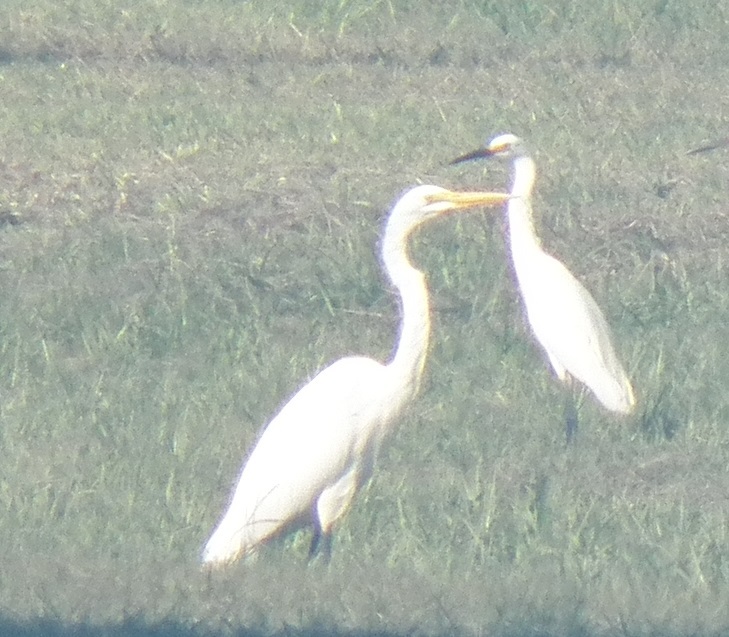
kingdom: Animalia
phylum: Chordata
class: Aves
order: Pelecaniformes
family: Ardeidae
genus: Ardea
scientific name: Ardea alba
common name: Great egret
